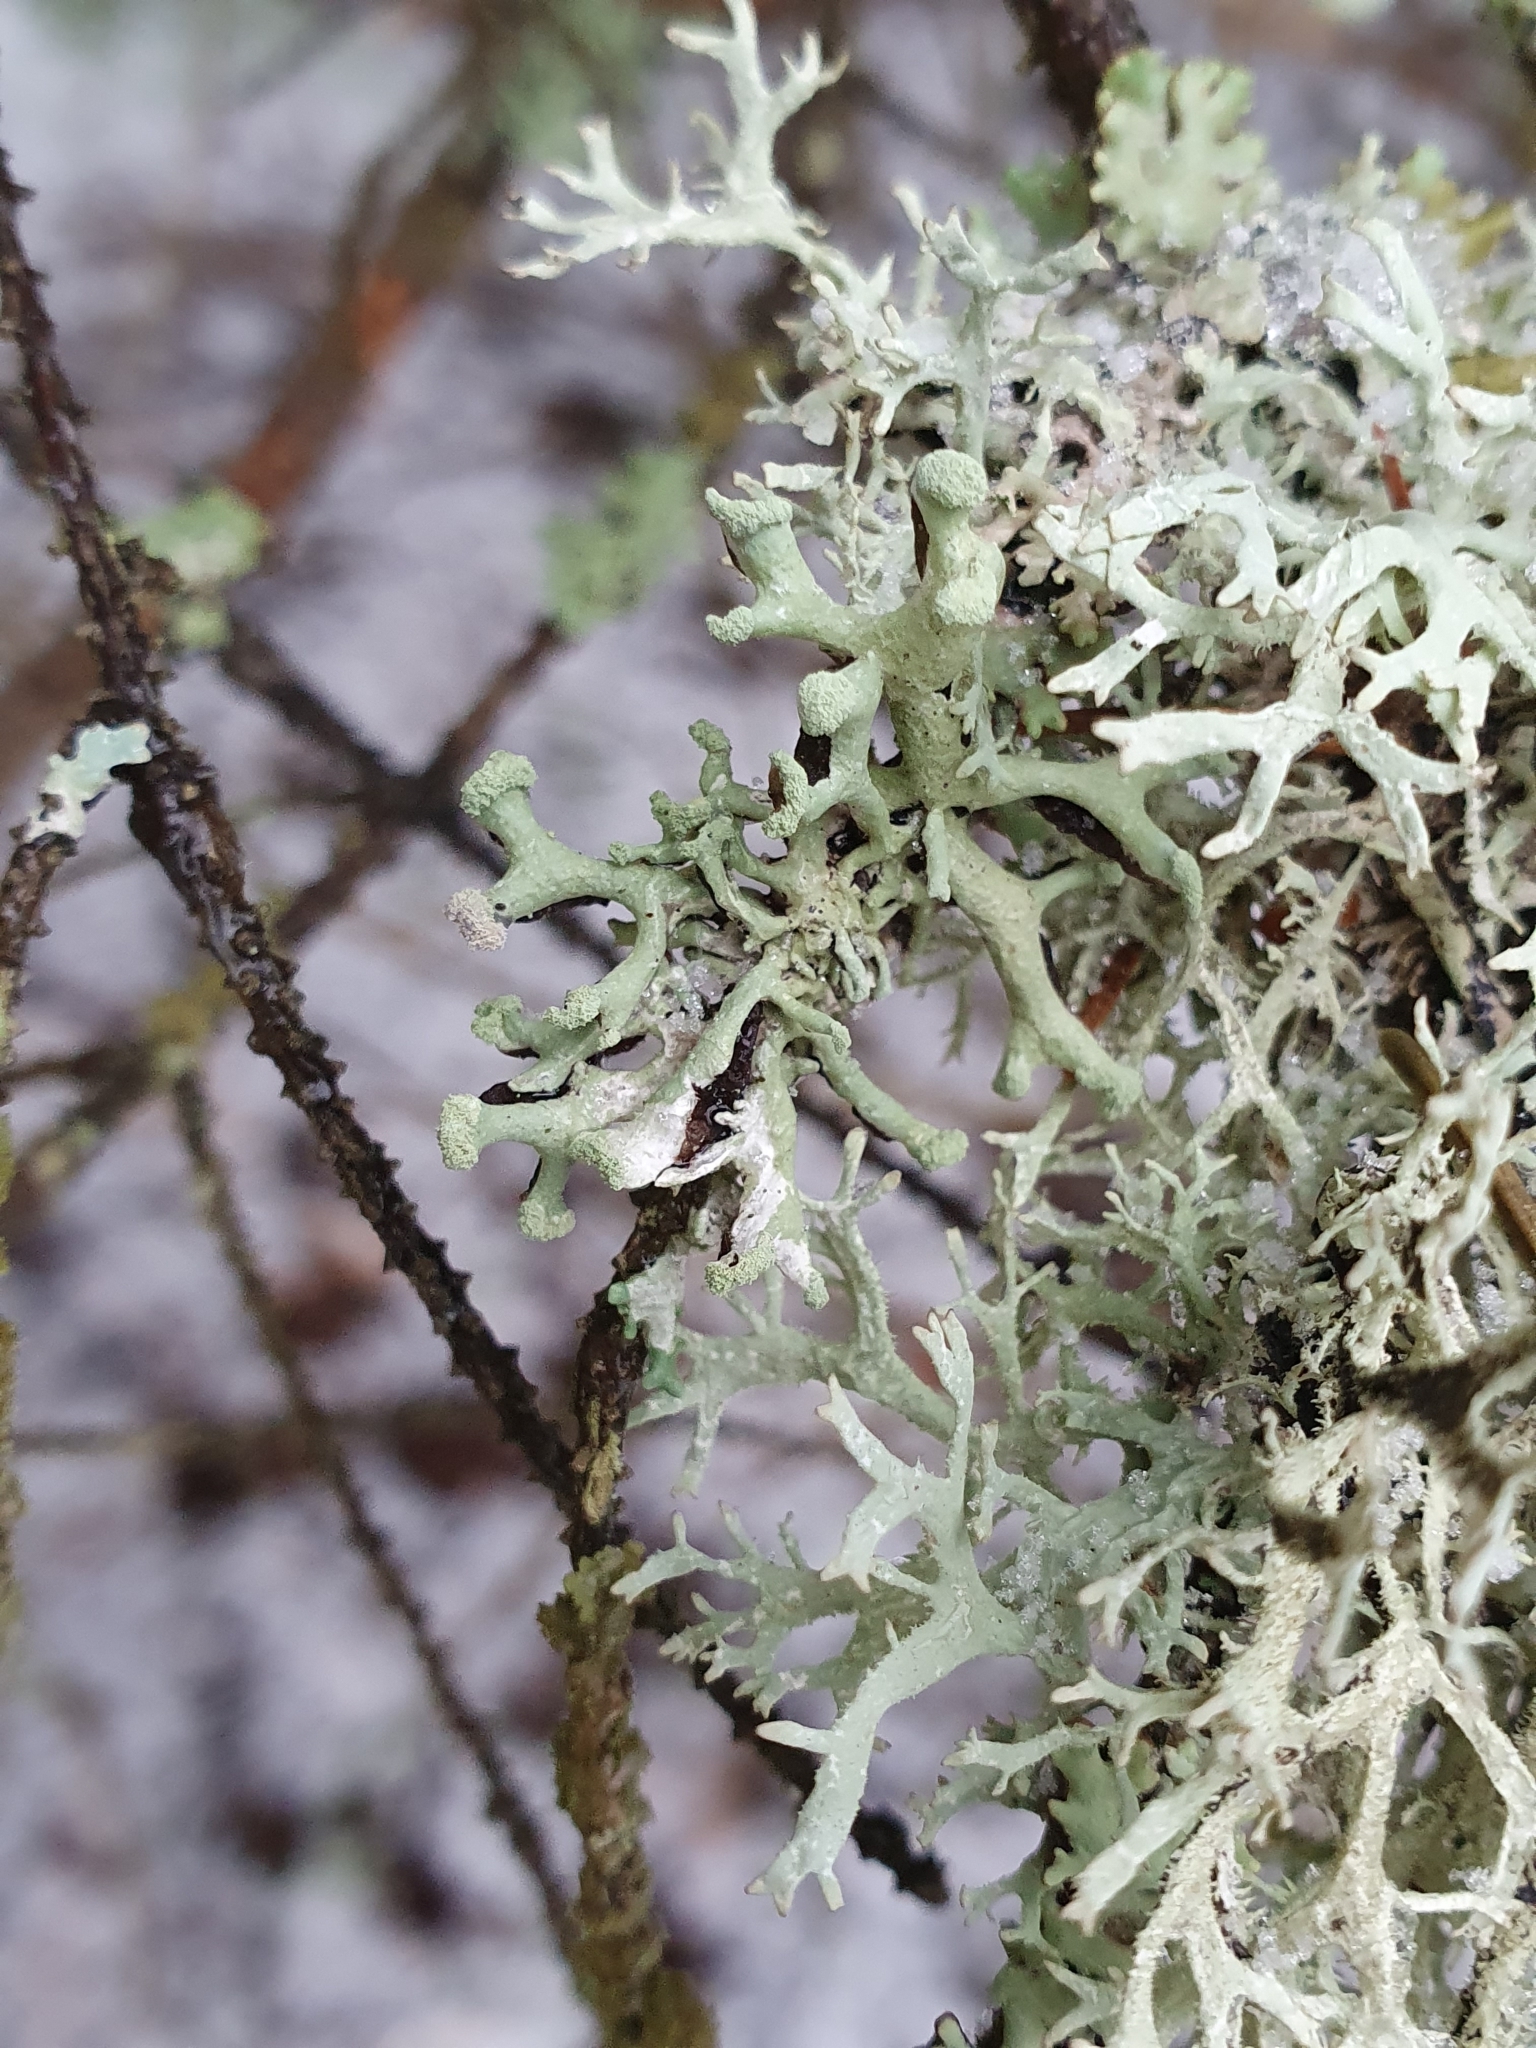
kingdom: Fungi
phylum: Ascomycota
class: Lecanoromycetes
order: Lecanorales
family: Parmeliaceae
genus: Hypogymnia
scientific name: Hypogymnia tubulosa
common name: Powder-headed tube lichen
